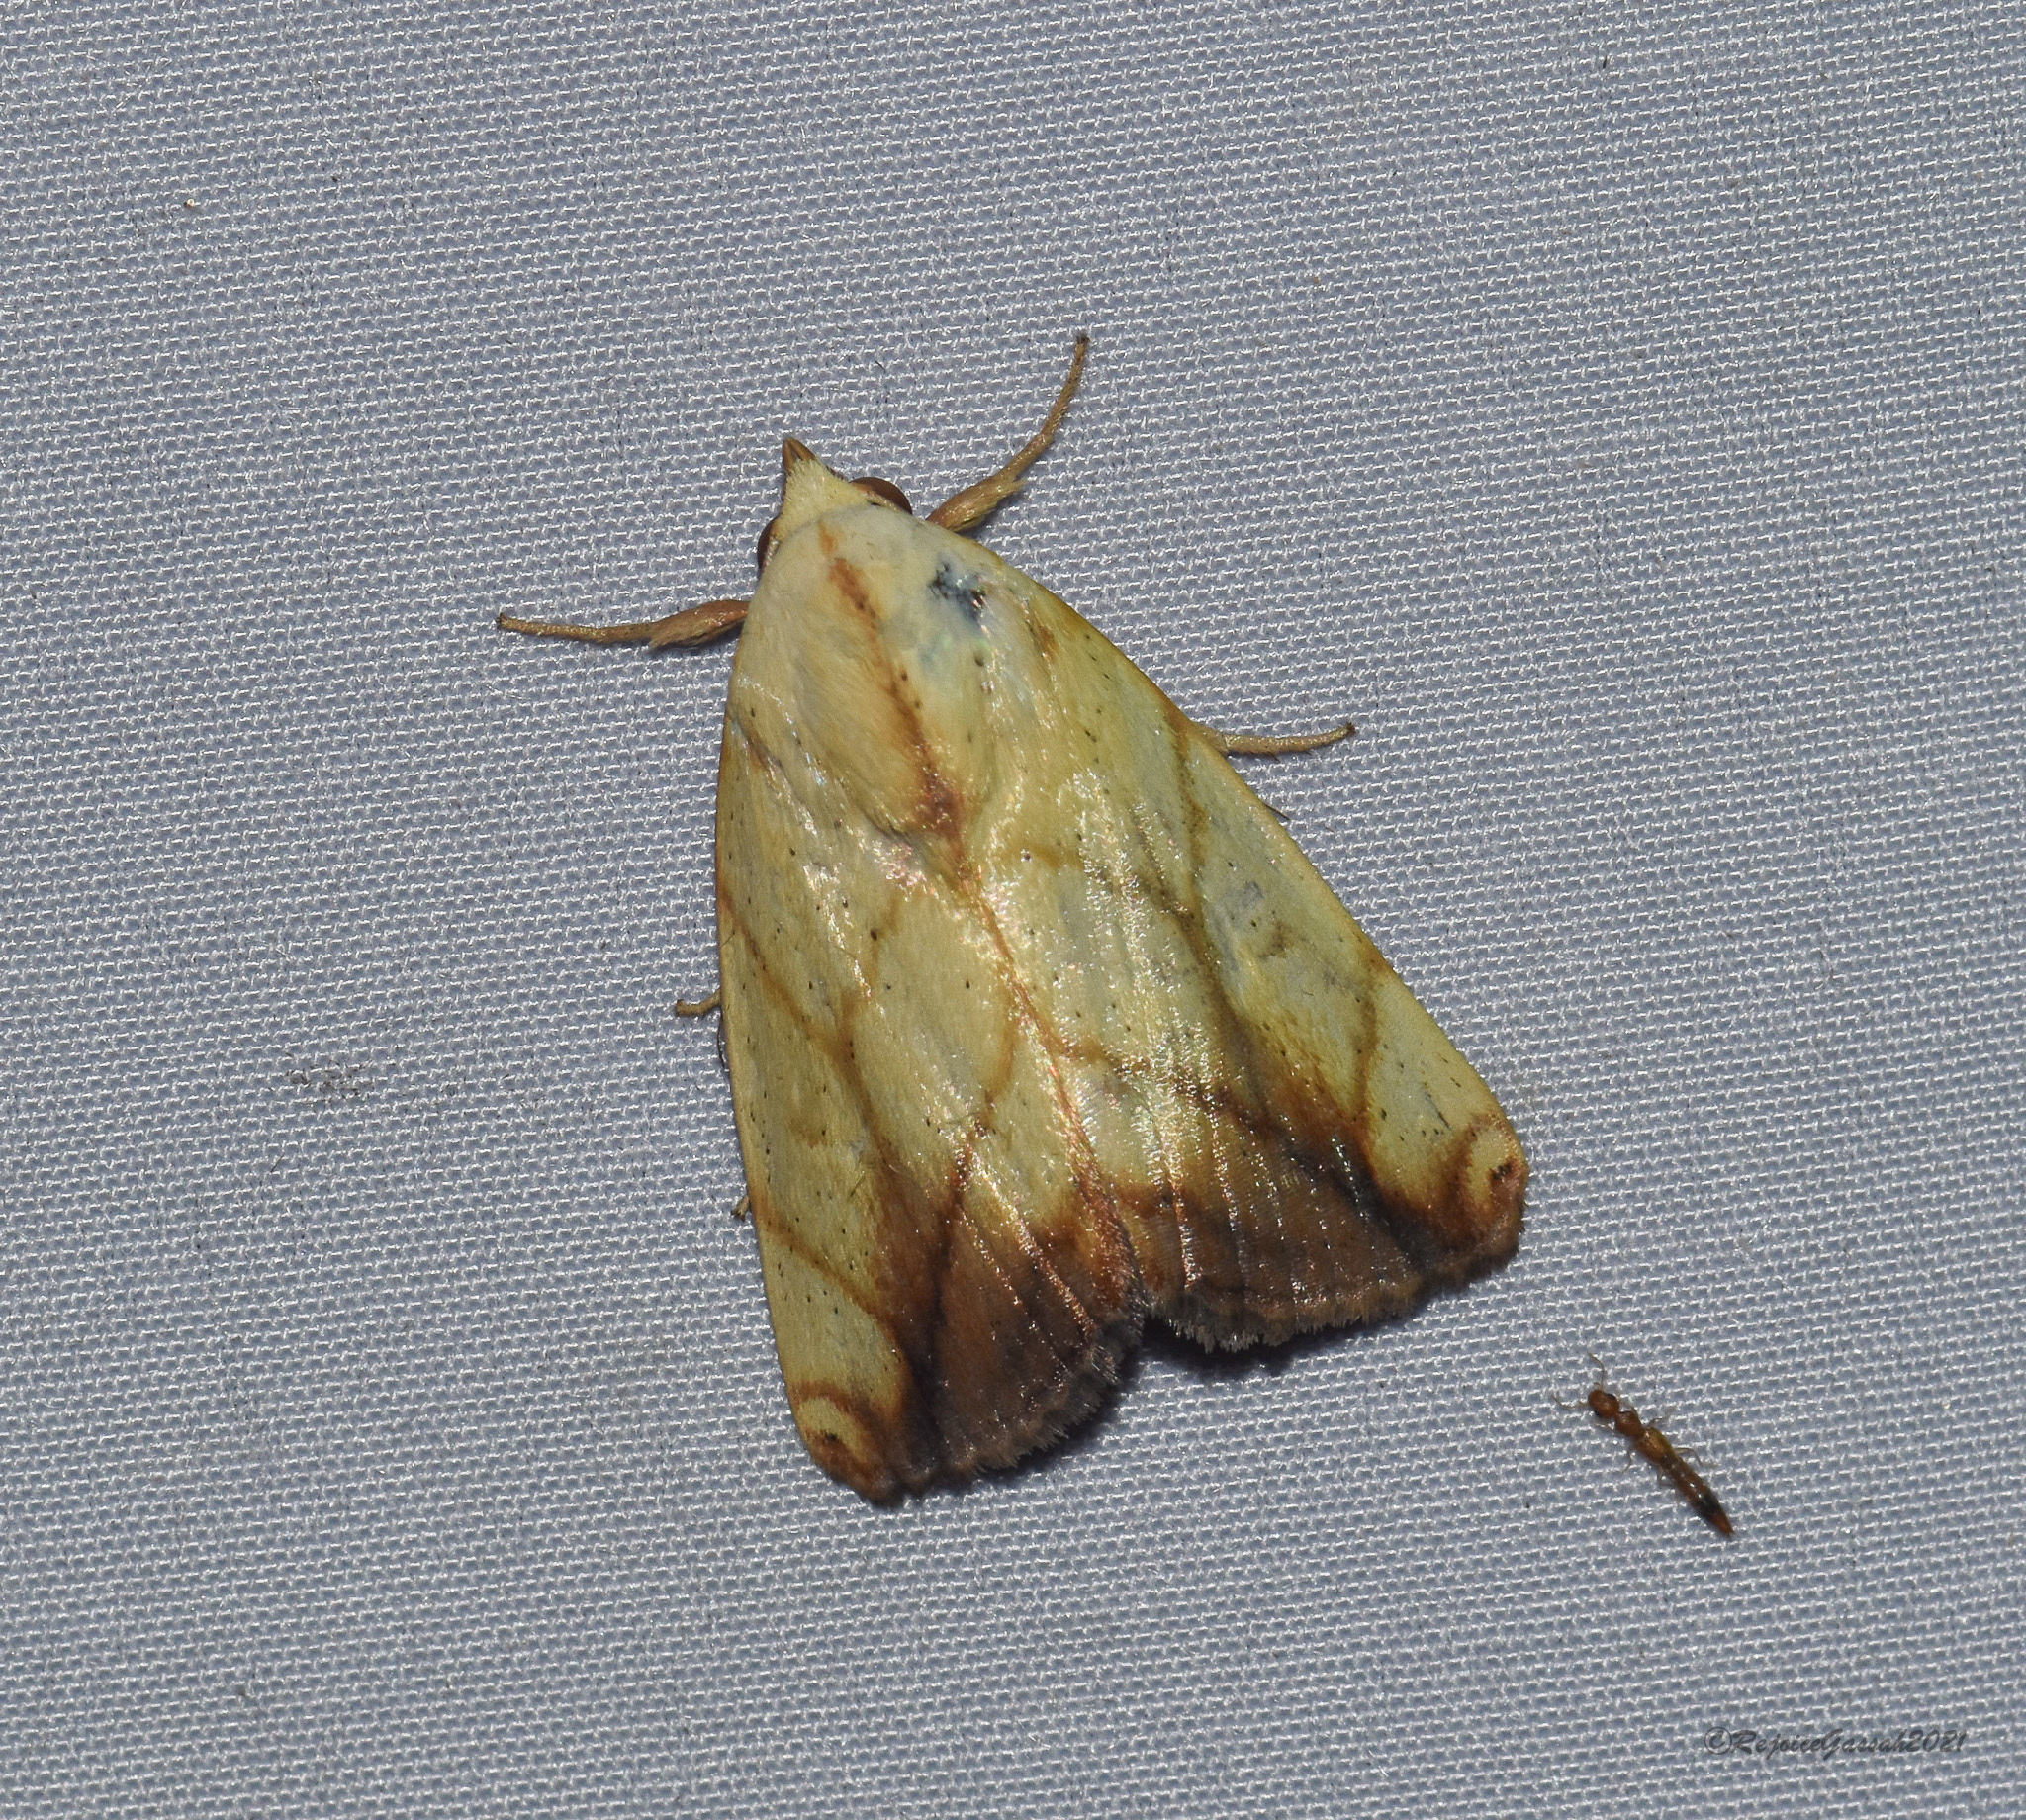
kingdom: Animalia
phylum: Arthropoda
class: Insecta
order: Lepidoptera
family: Nolidae
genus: Xanthodes
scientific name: Xanthodes transversa
